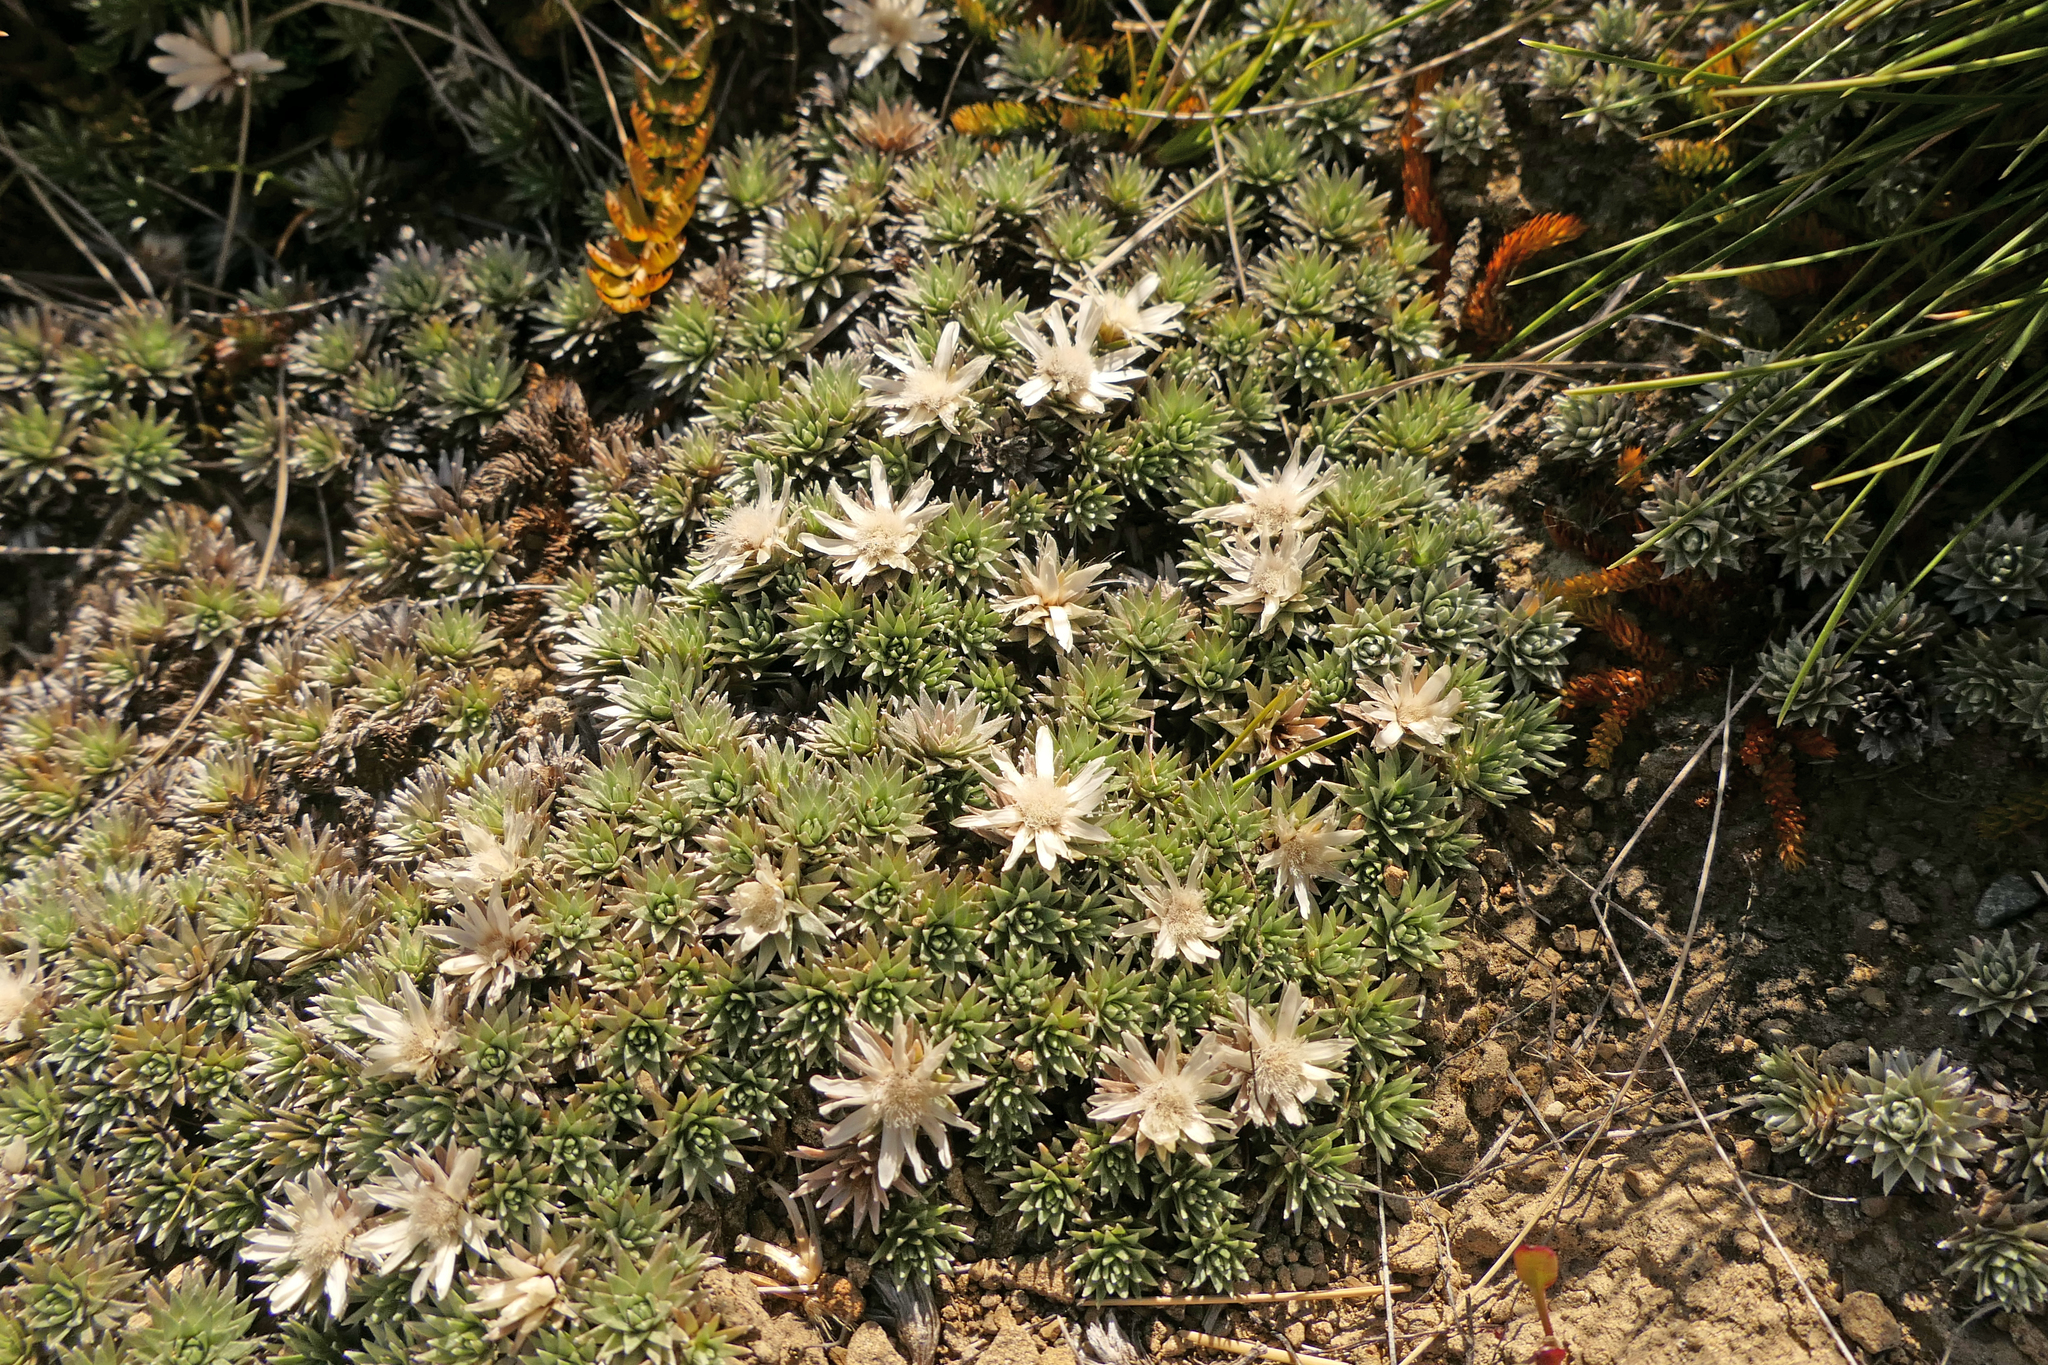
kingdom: Plantae
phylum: Tracheophyta
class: Magnoliopsida
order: Asterales
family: Asteraceae
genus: Raoulia
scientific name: Raoulia grandiflora
